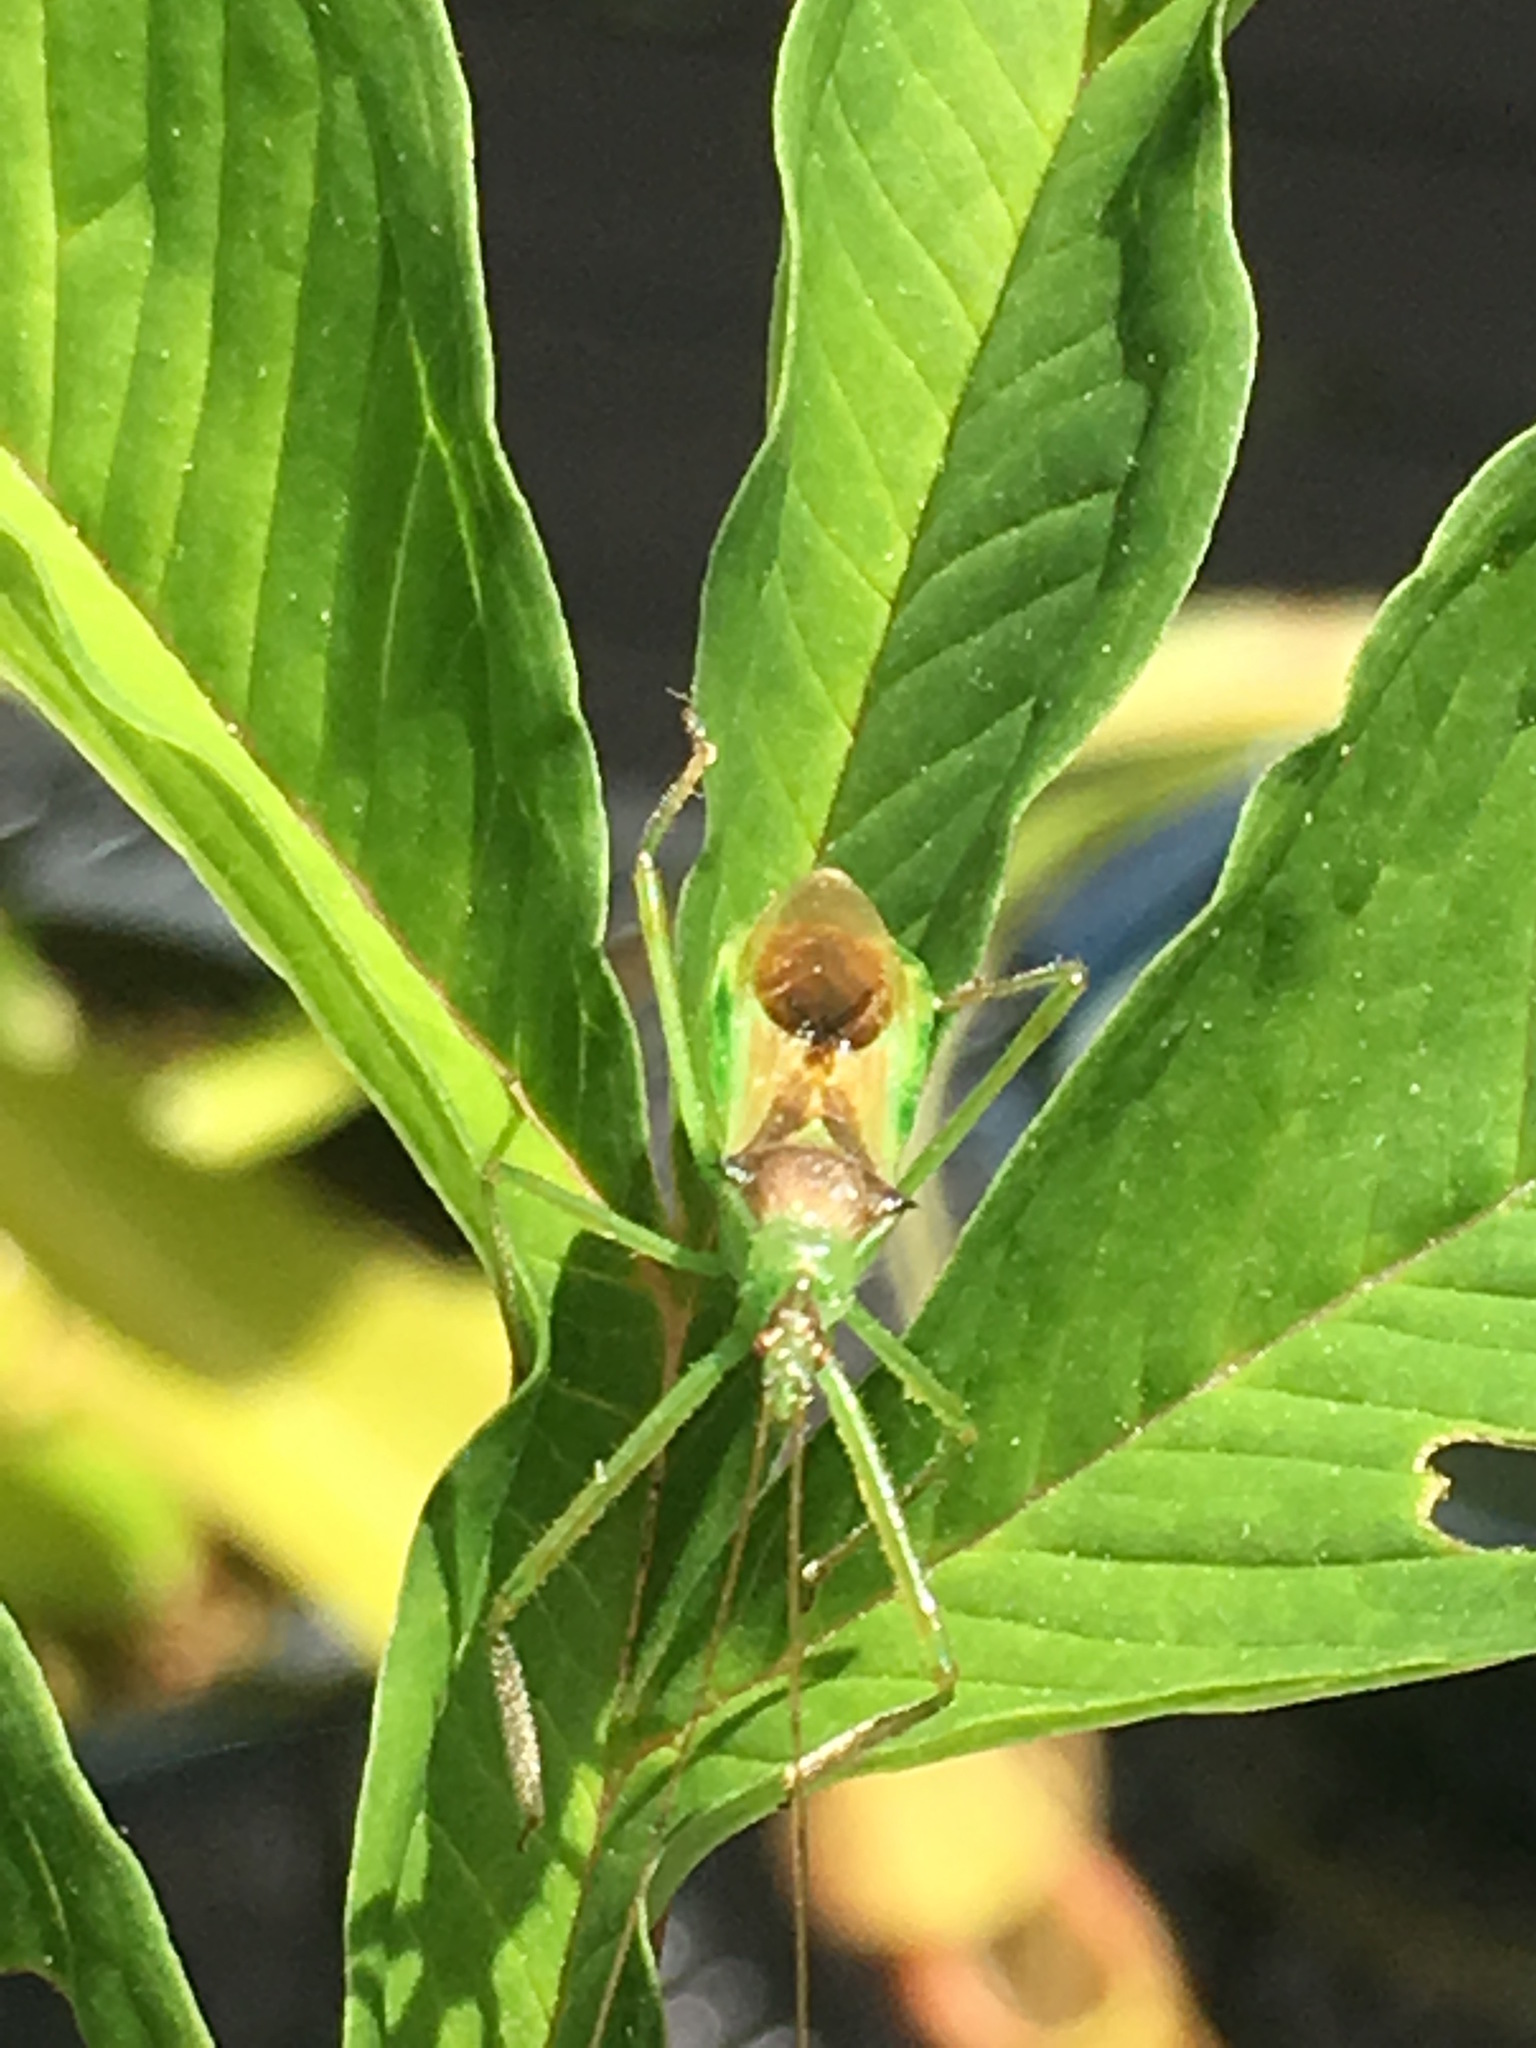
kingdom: Animalia
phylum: Arthropoda
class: Insecta
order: Hemiptera
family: Reduviidae
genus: Zelus
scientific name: Zelus luridus
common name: Pale green assassin bug
